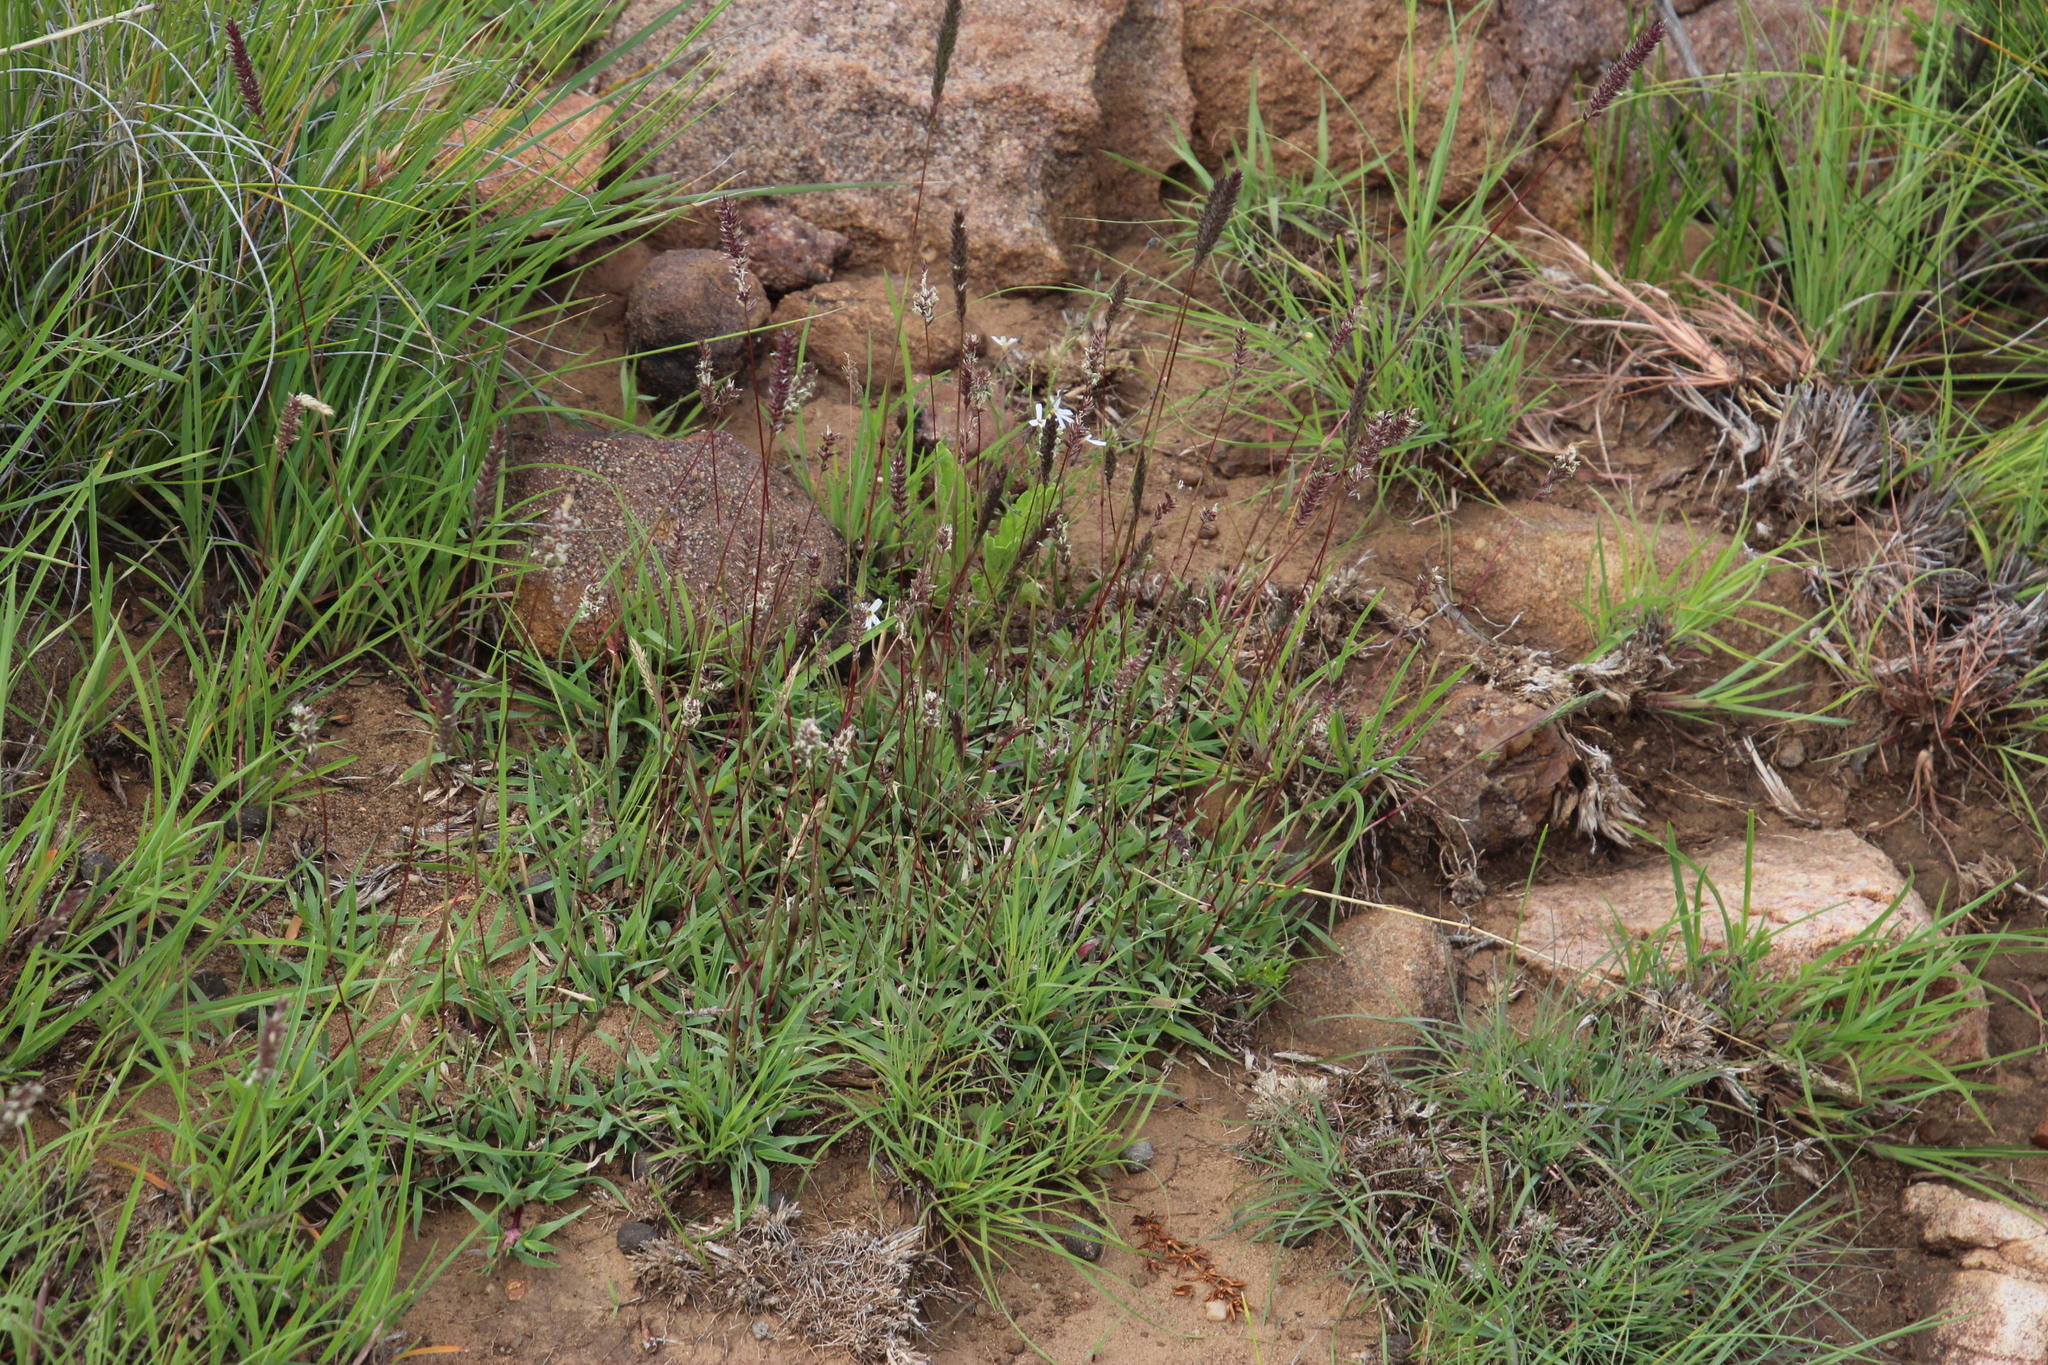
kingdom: Plantae
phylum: Tracheophyta
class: Liliopsida
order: Poales
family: Poaceae
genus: Tragus
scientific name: Tragus koelerioides
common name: Creeping carrot-seed grass
